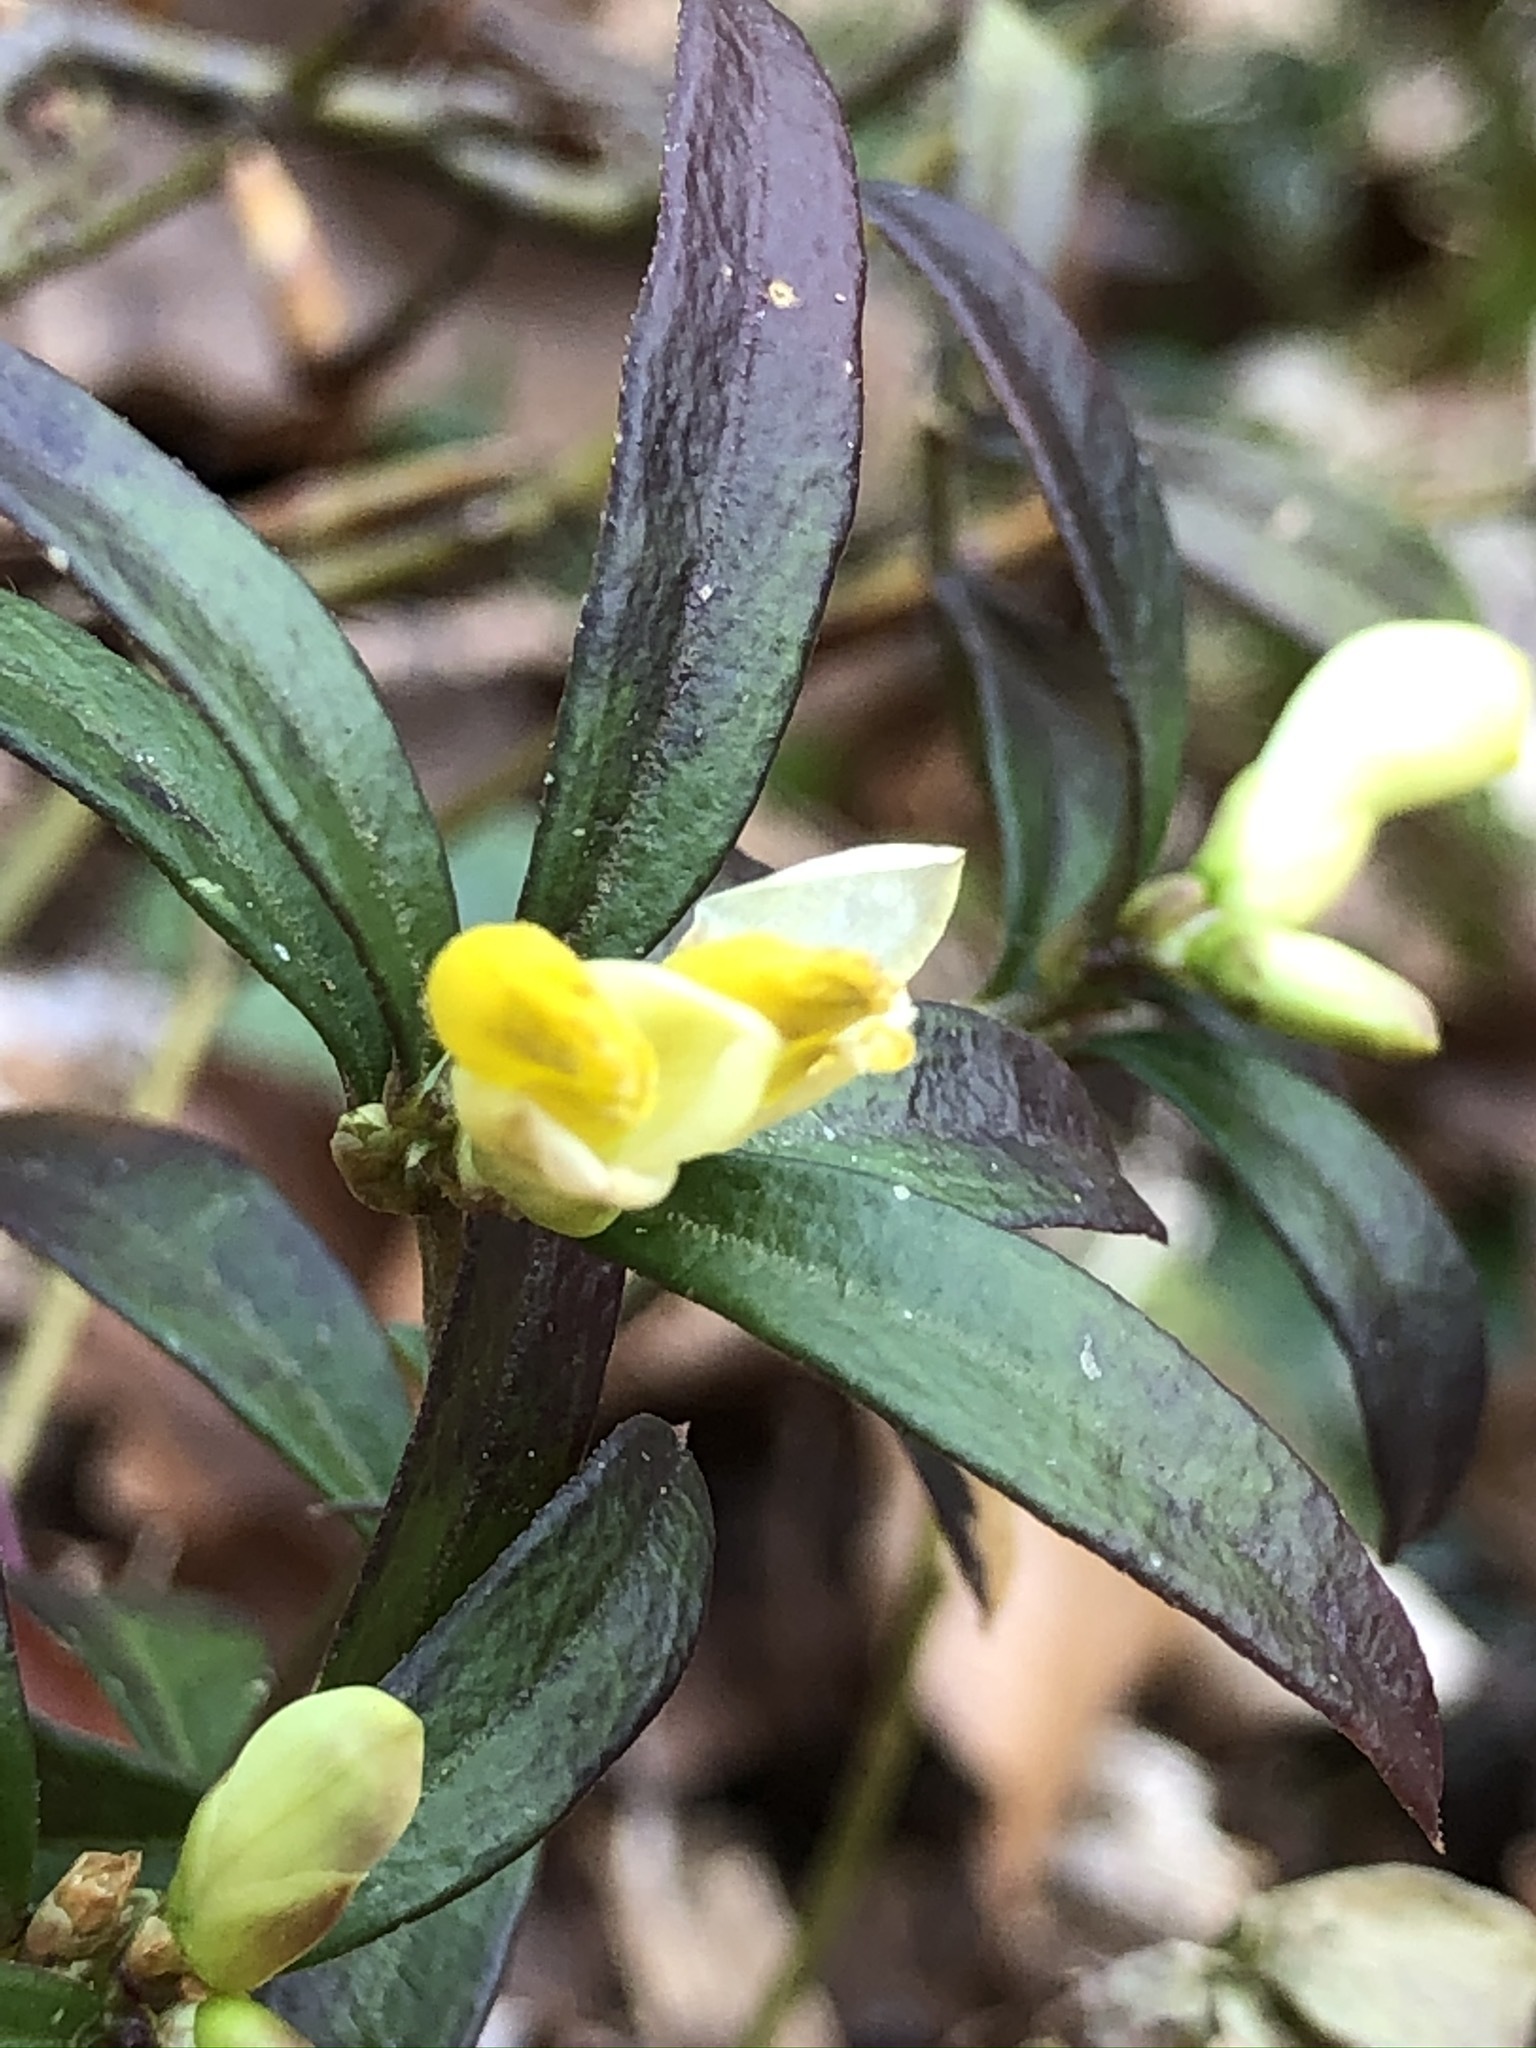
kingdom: Plantae
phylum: Tracheophyta
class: Magnoliopsida
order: Fabales
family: Polygalaceae
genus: Polygaloides
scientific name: Polygaloides chamaebuxus
